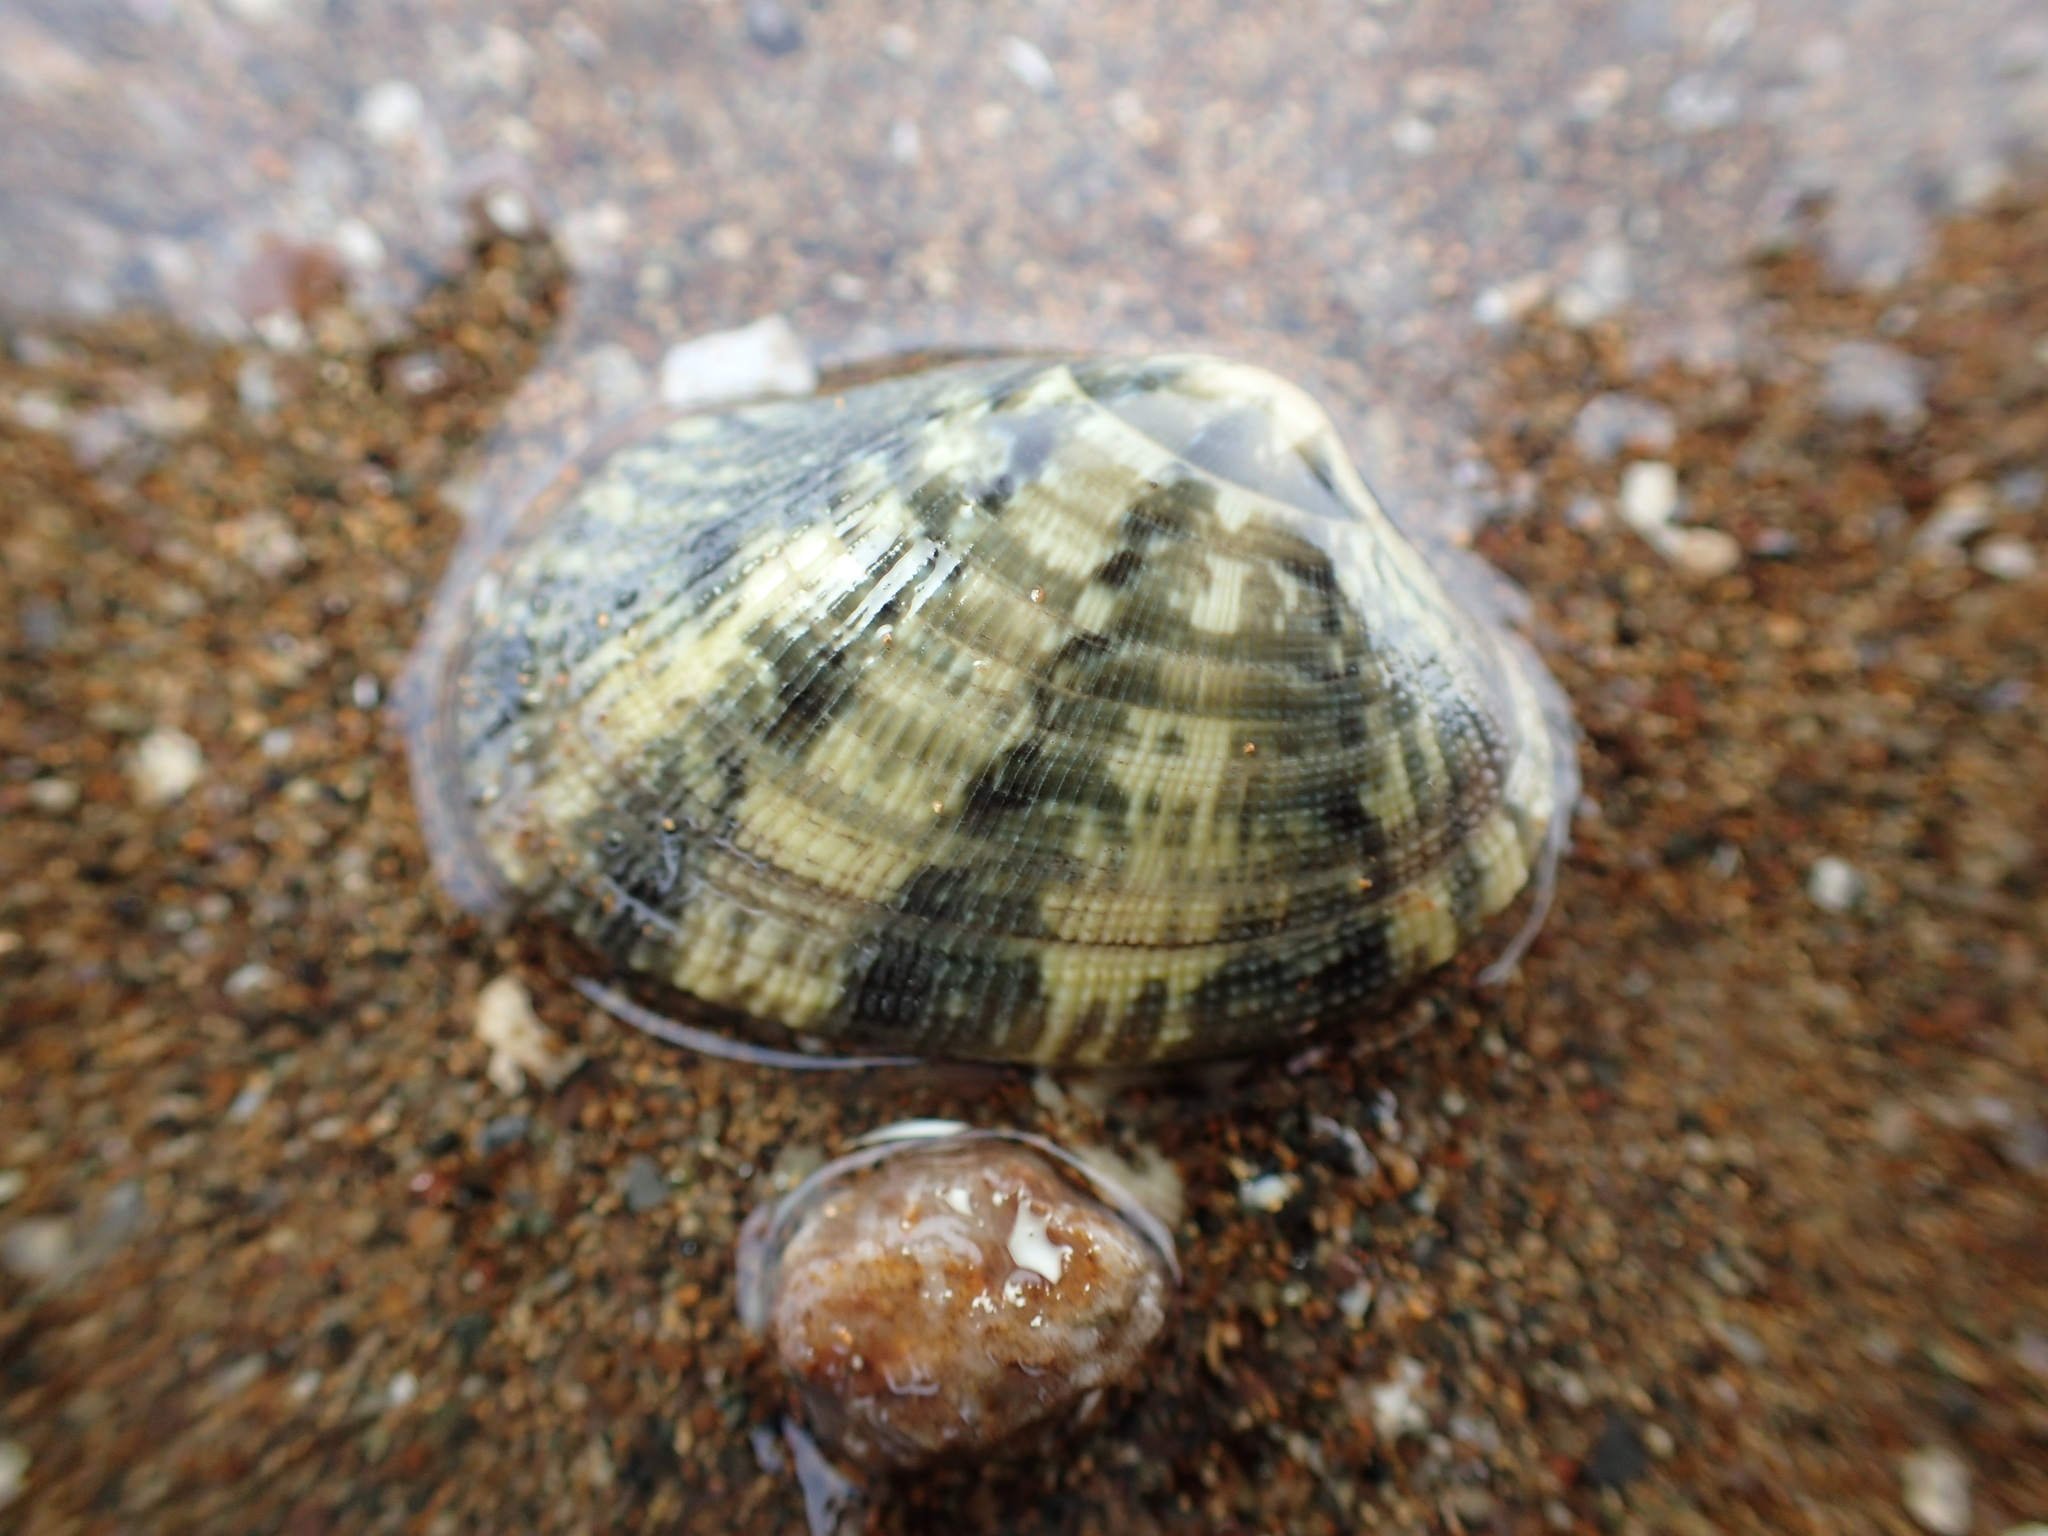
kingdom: Animalia
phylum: Mollusca
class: Bivalvia
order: Venerida
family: Veneridae
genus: Ruditapes
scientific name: Ruditapes philippinarum
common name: Manila clam
